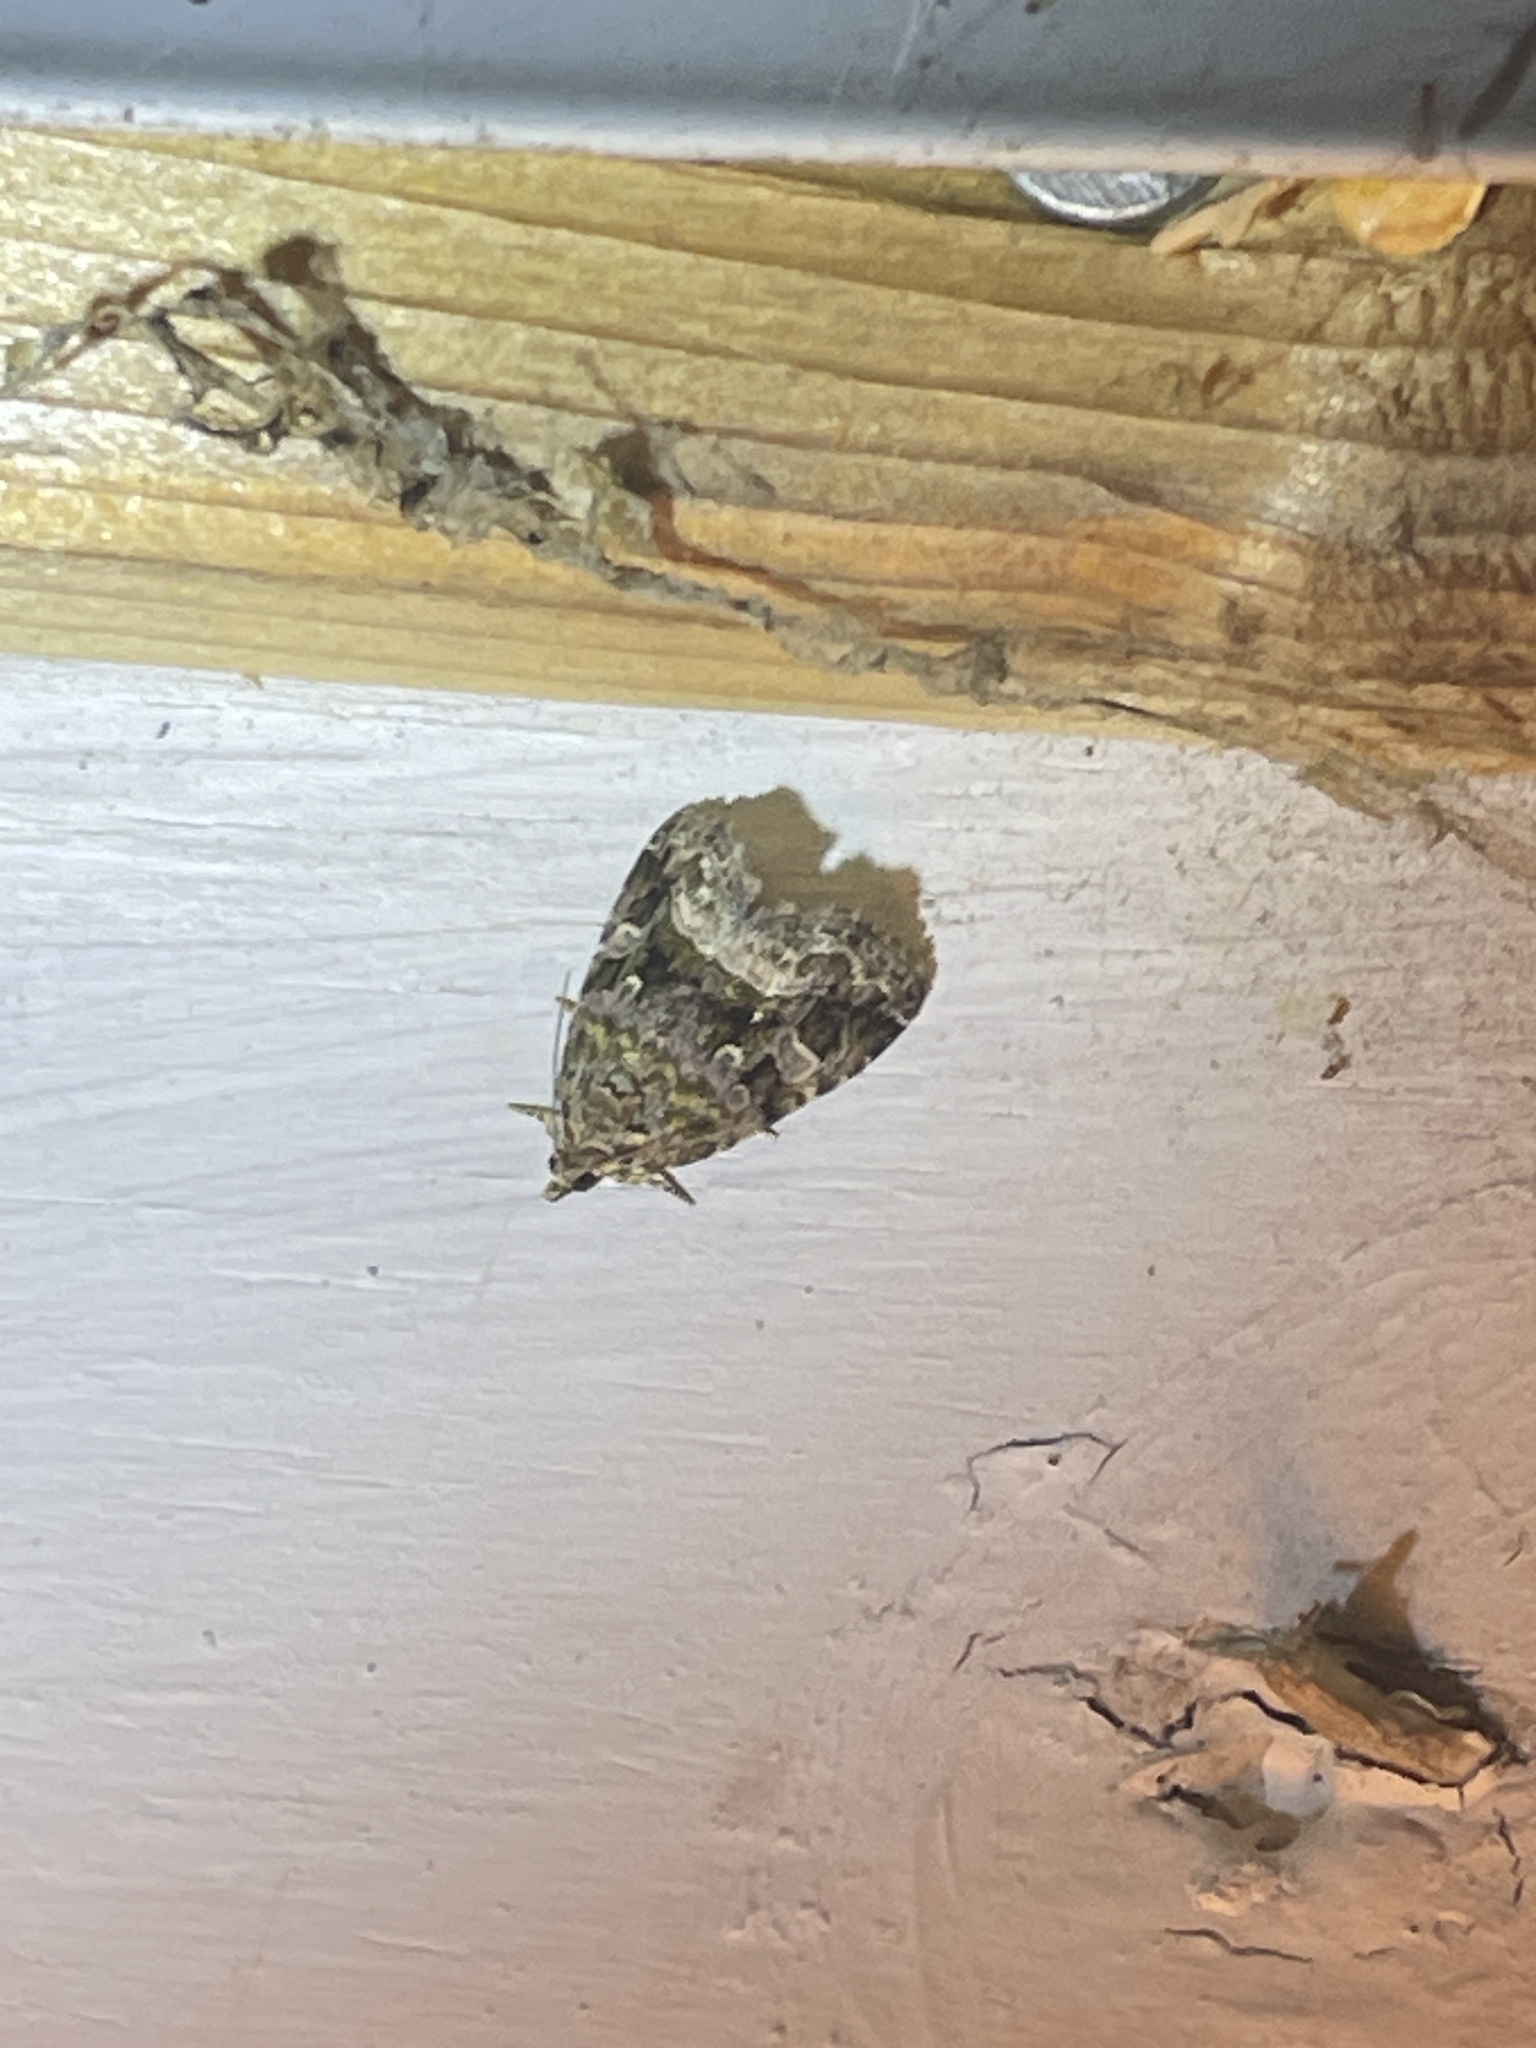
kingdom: Animalia
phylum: Arthropoda
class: Insecta
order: Lepidoptera
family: Noctuidae
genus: Protodeltote
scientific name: Protodeltote muscosula
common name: Large mossy glyph
